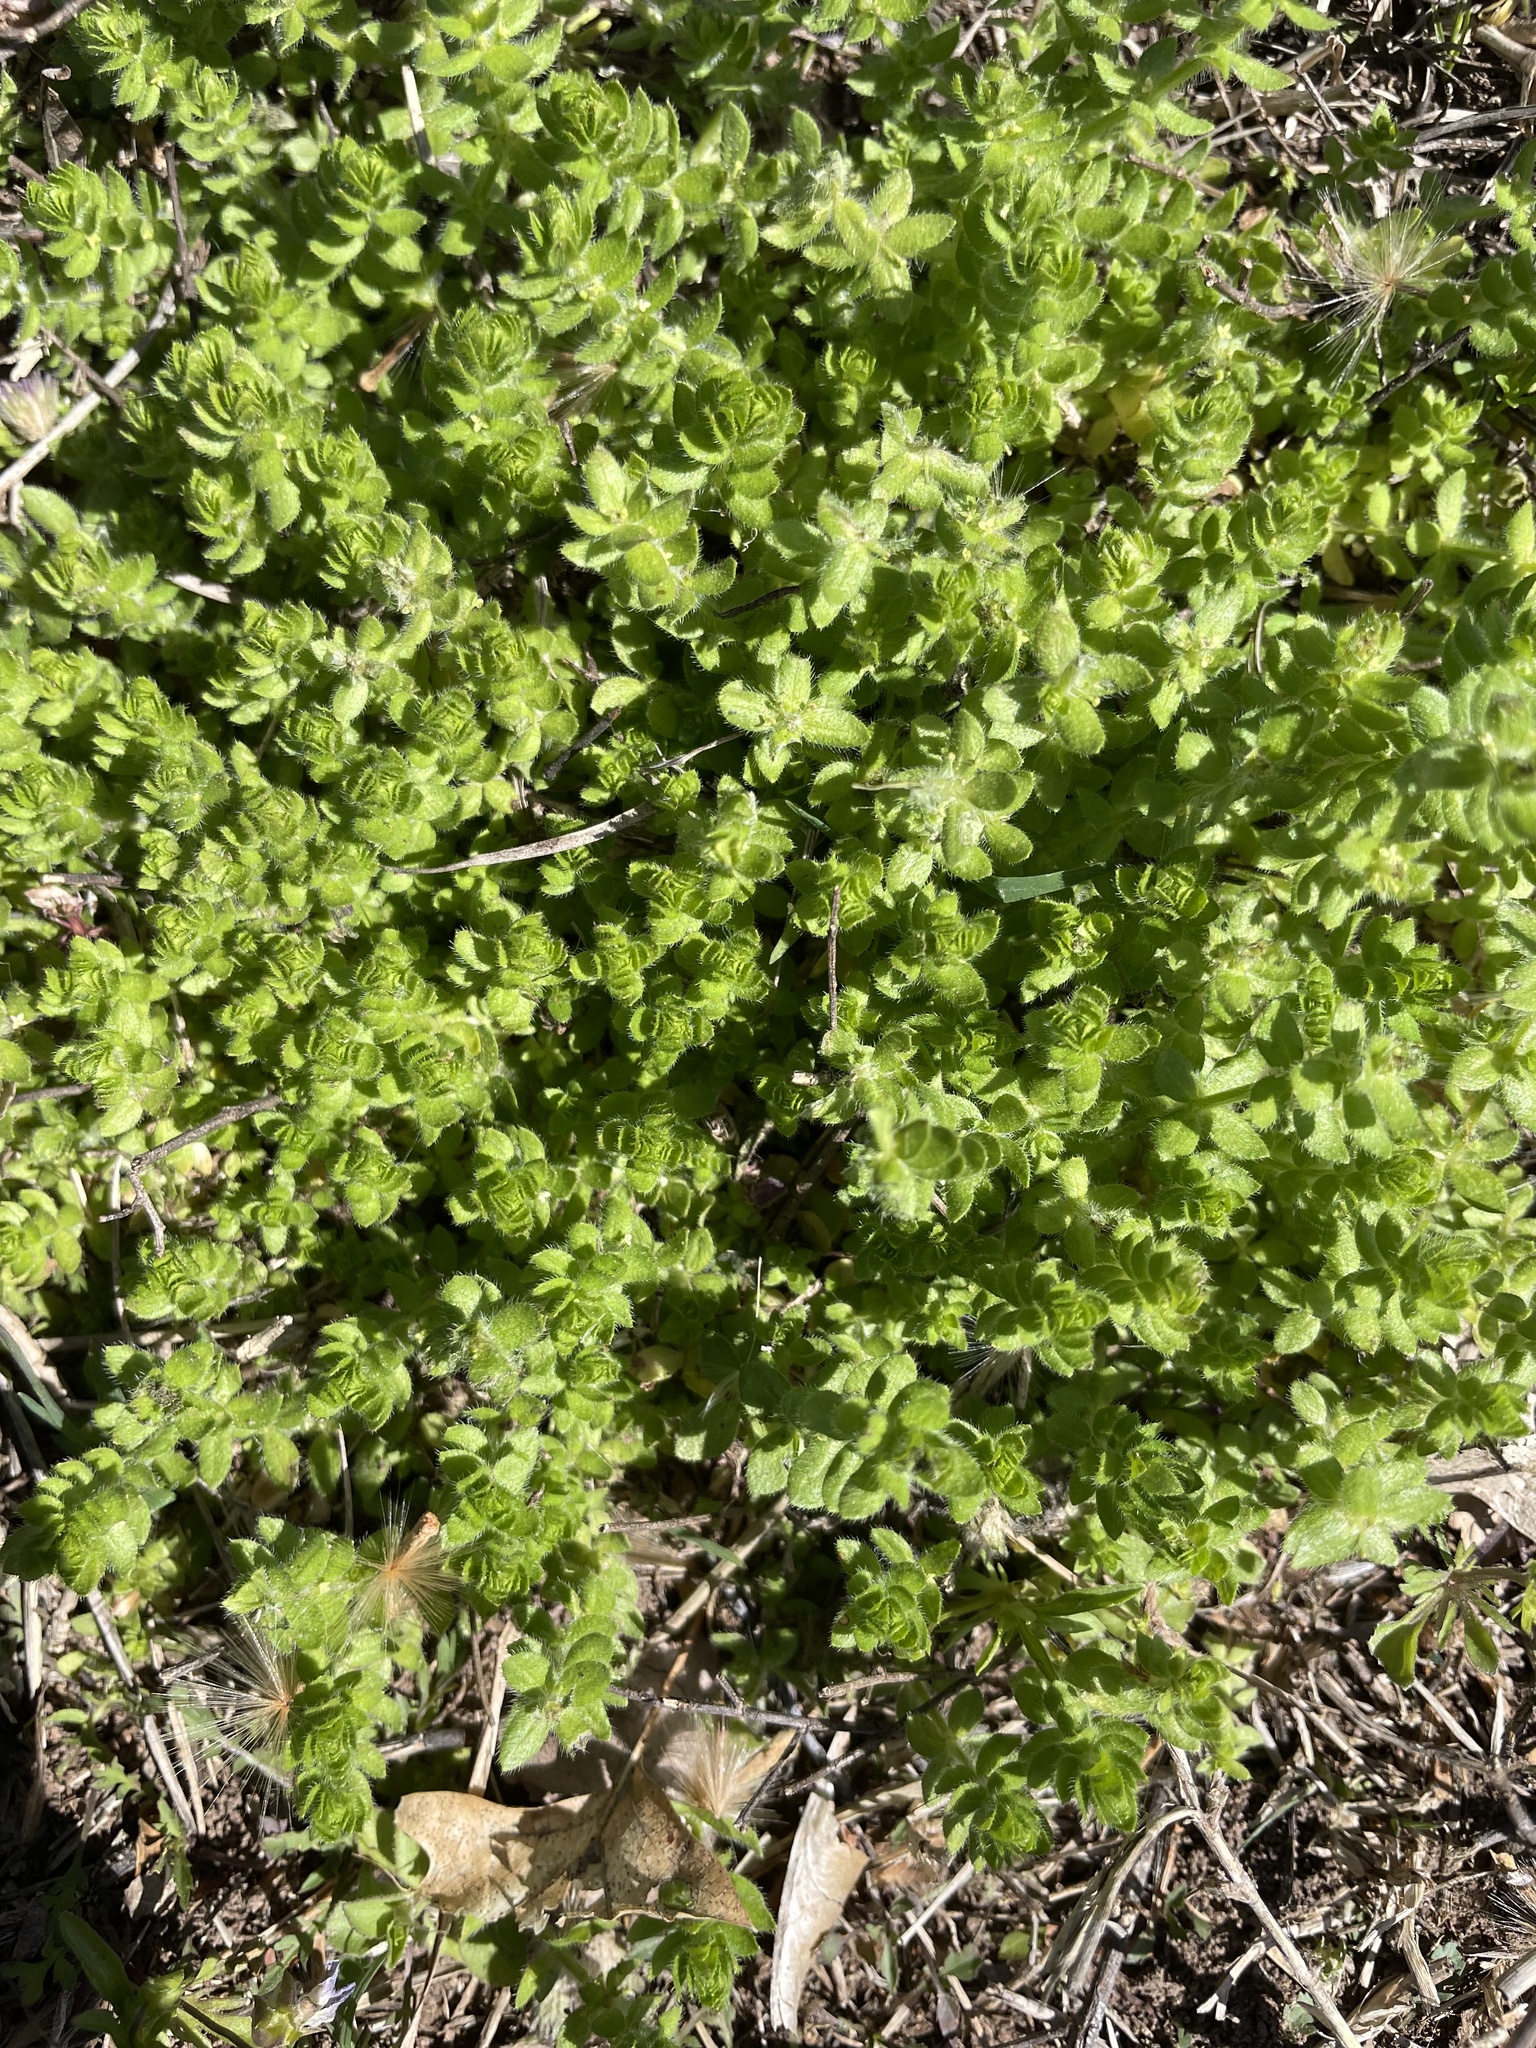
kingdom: Plantae
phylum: Tracheophyta
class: Magnoliopsida
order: Gentianales
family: Rubiaceae
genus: Cruciata
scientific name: Cruciata pedemontana
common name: Piedmont bedstraw
